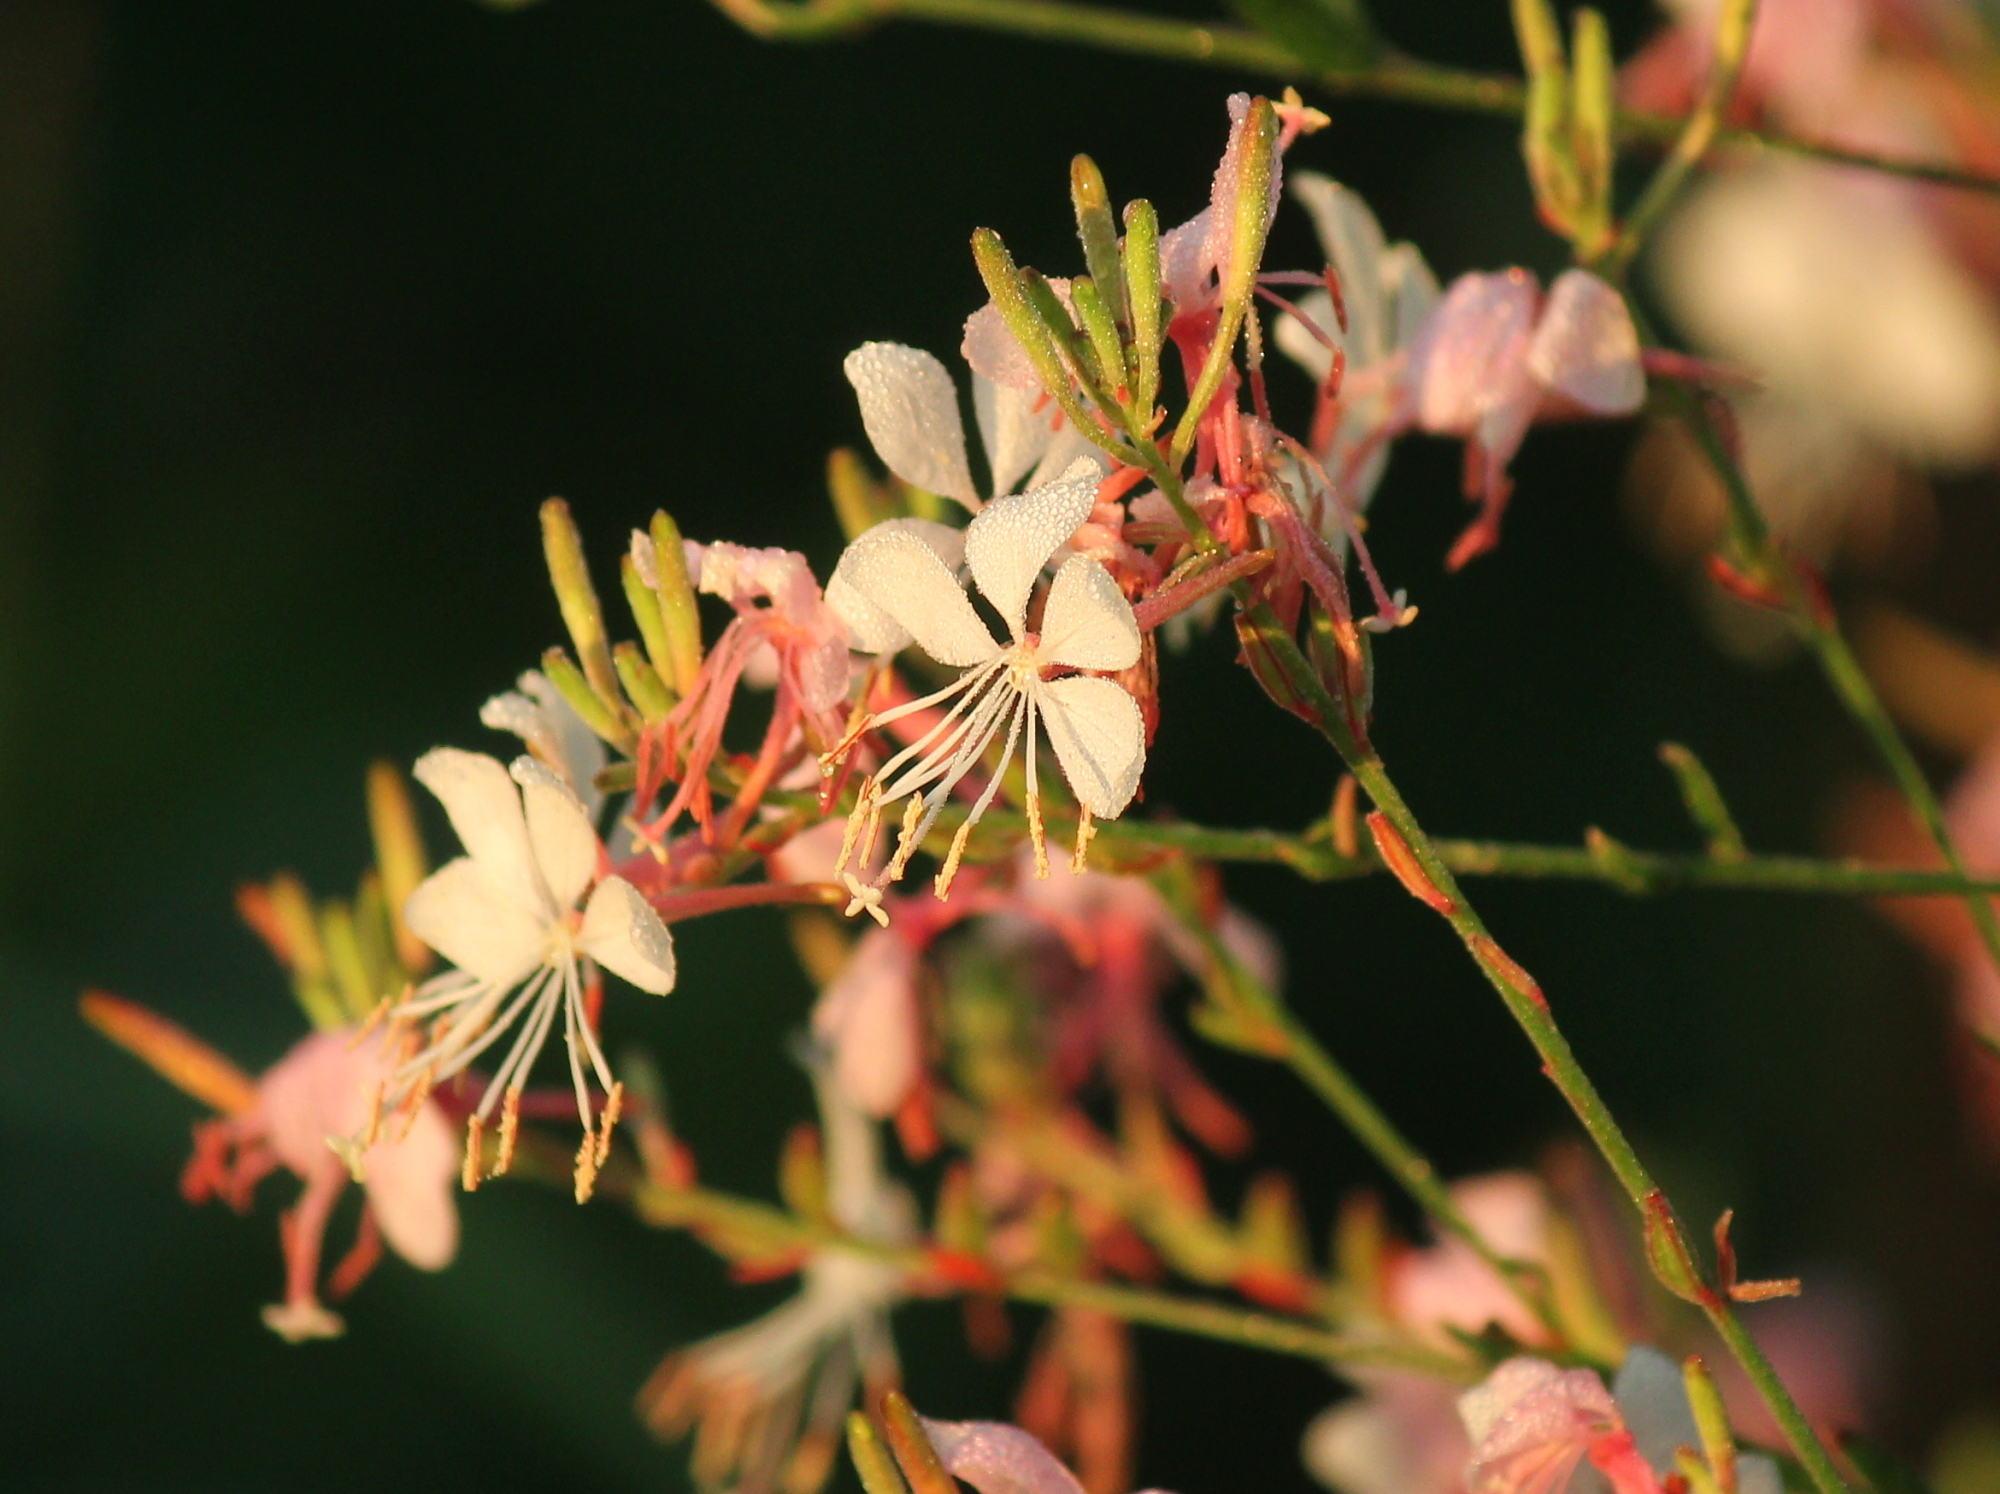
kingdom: Plantae
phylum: Tracheophyta
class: Magnoliopsida
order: Myrtales
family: Onagraceae
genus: Oenothera
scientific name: Oenothera demareei
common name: Demaree's beeblossom
